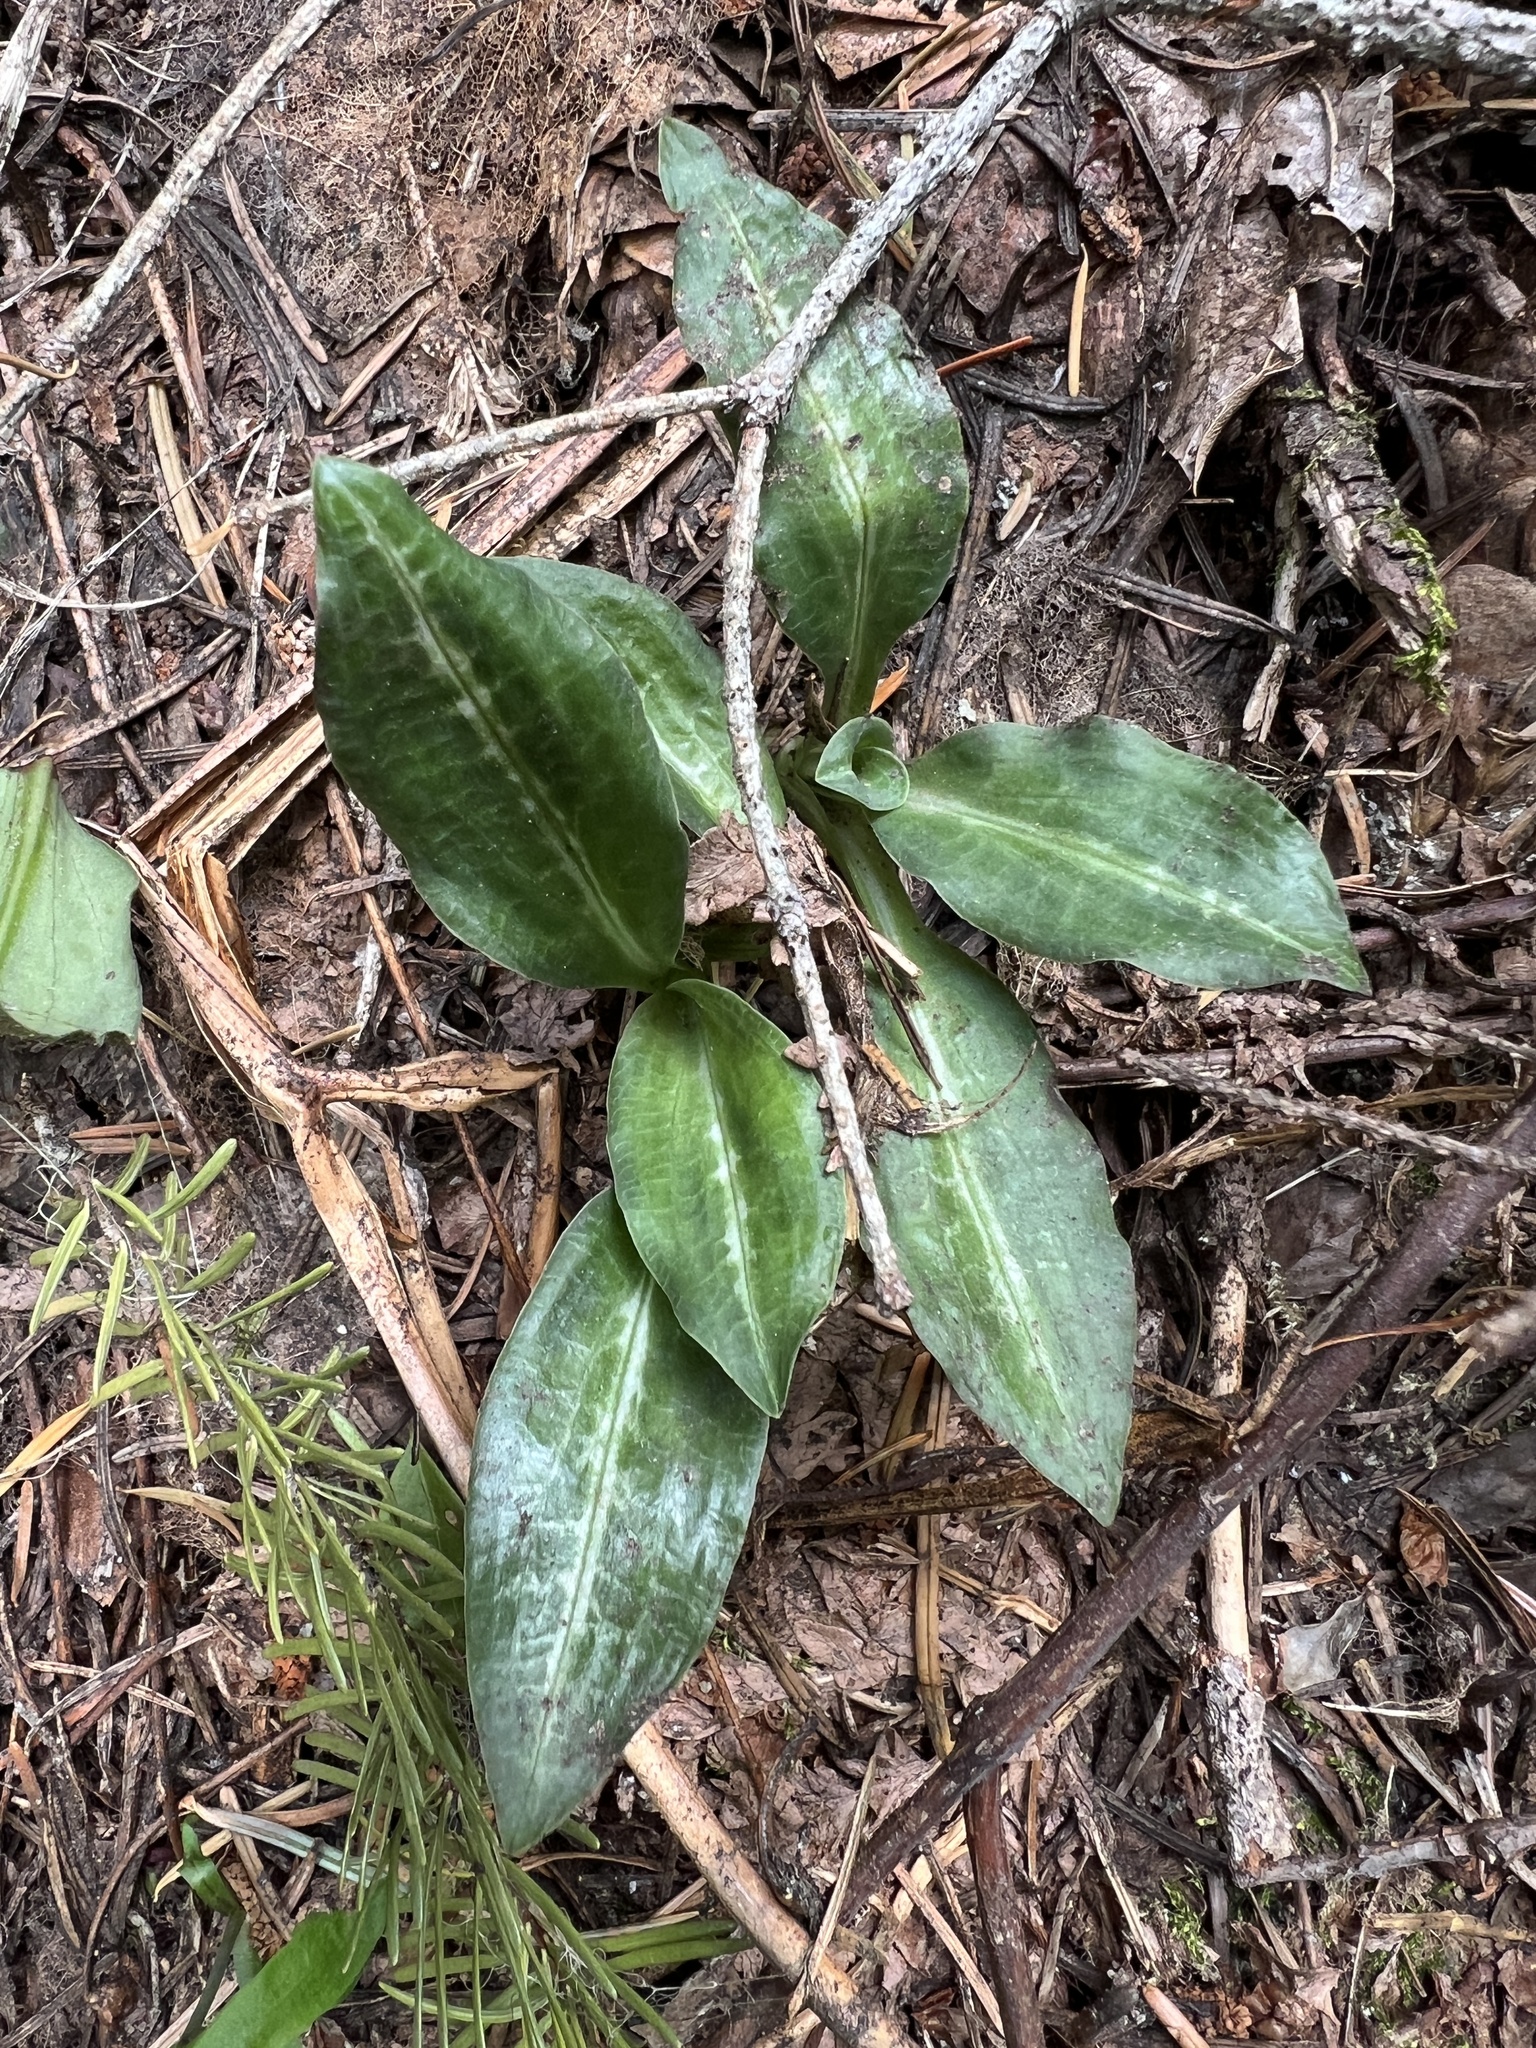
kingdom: Plantae
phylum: Tracheophyta
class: Liliopsida
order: Asparagales
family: Orchidaceae
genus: Goodyera
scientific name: Goodyera oblongifolia
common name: Giant rattlesnake-plantain
